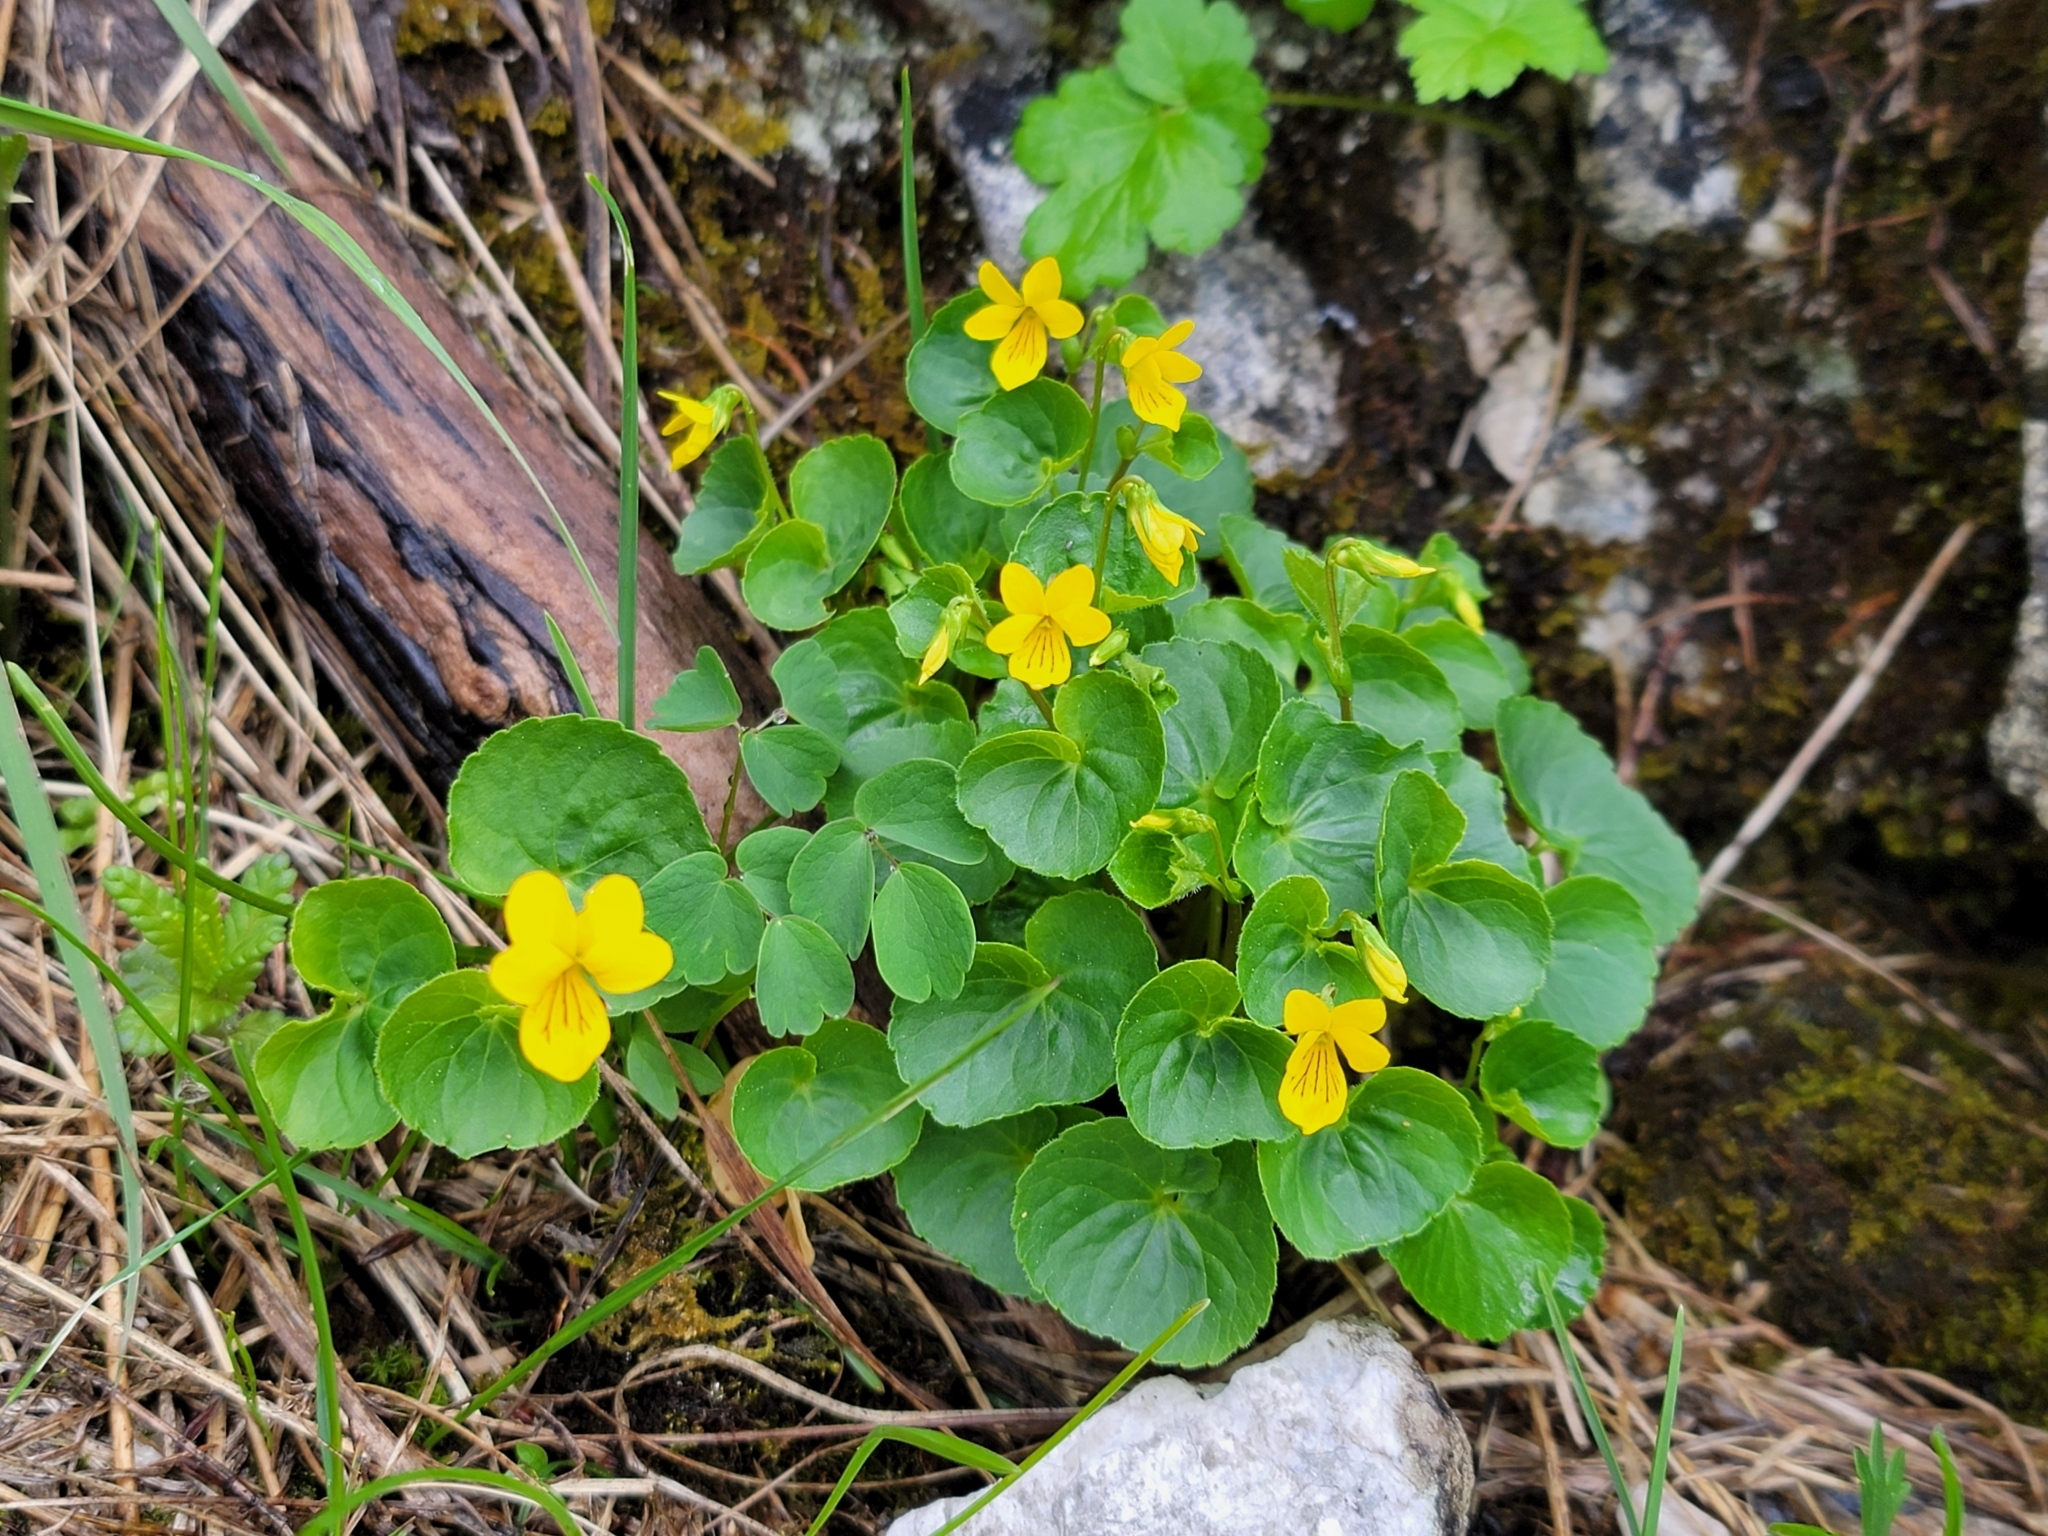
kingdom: Plantae
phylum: Tracheophyta
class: Magnoliopsida
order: Malpighiales
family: Violaceae
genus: Viola
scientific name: Viola biflora
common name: Alpine yellow violet
